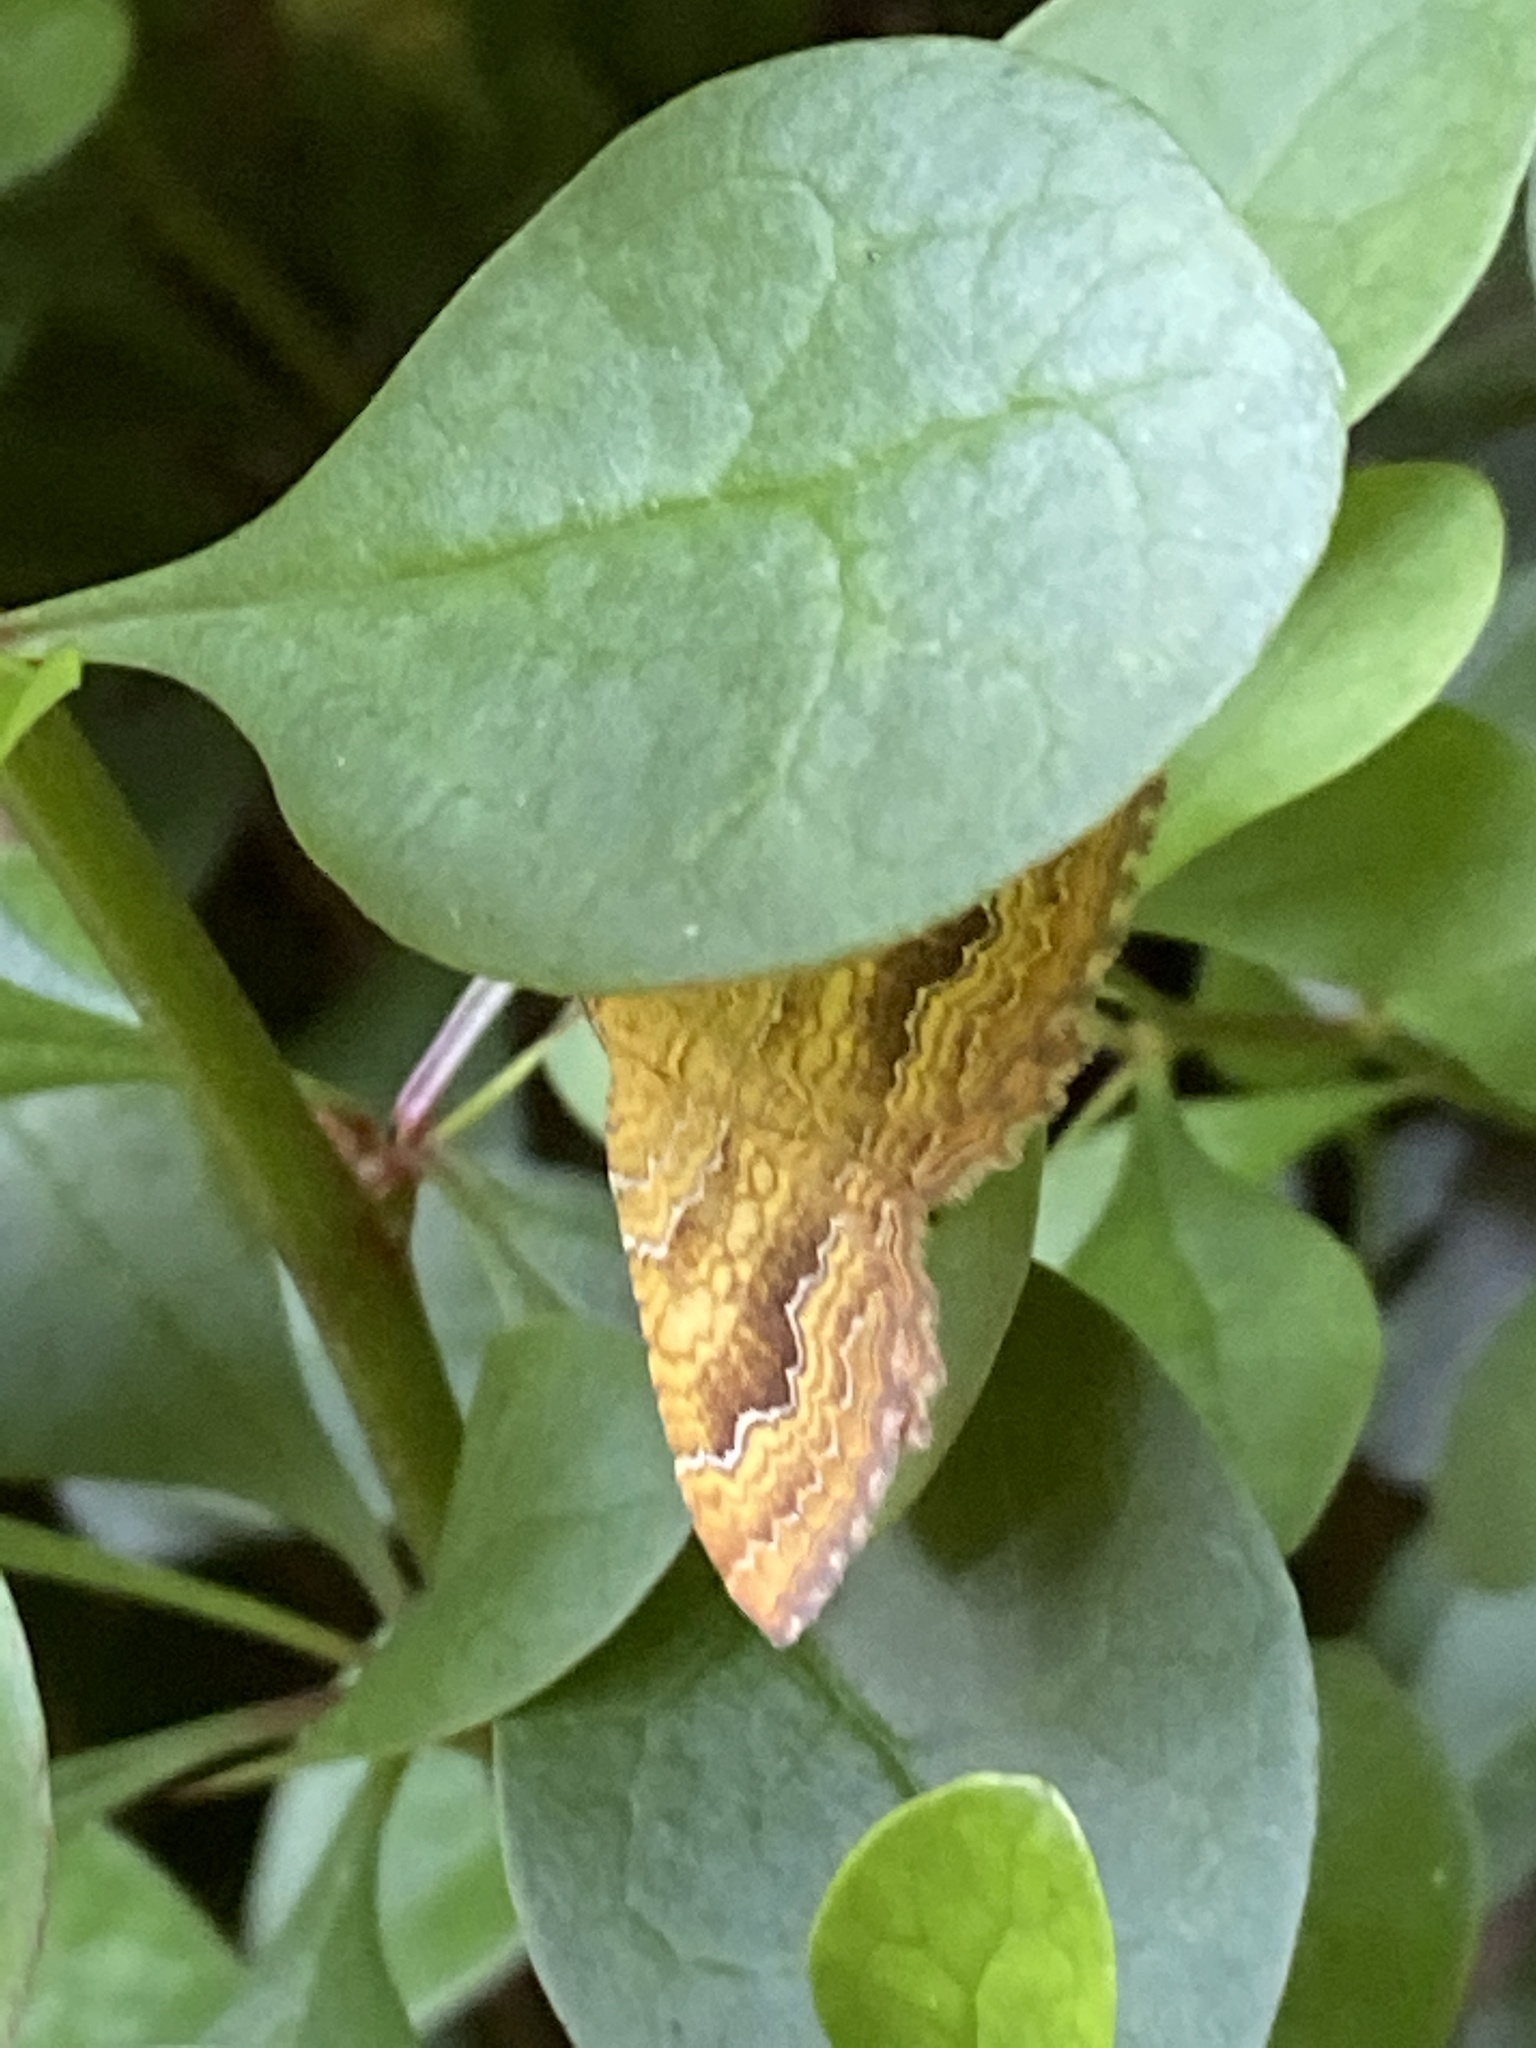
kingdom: Animalia
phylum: Arthropoda
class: Insecta
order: Lepidoptera
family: Geometridae
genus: Camptogramma
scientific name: Camptogramma bilineata
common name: Yellow shell
